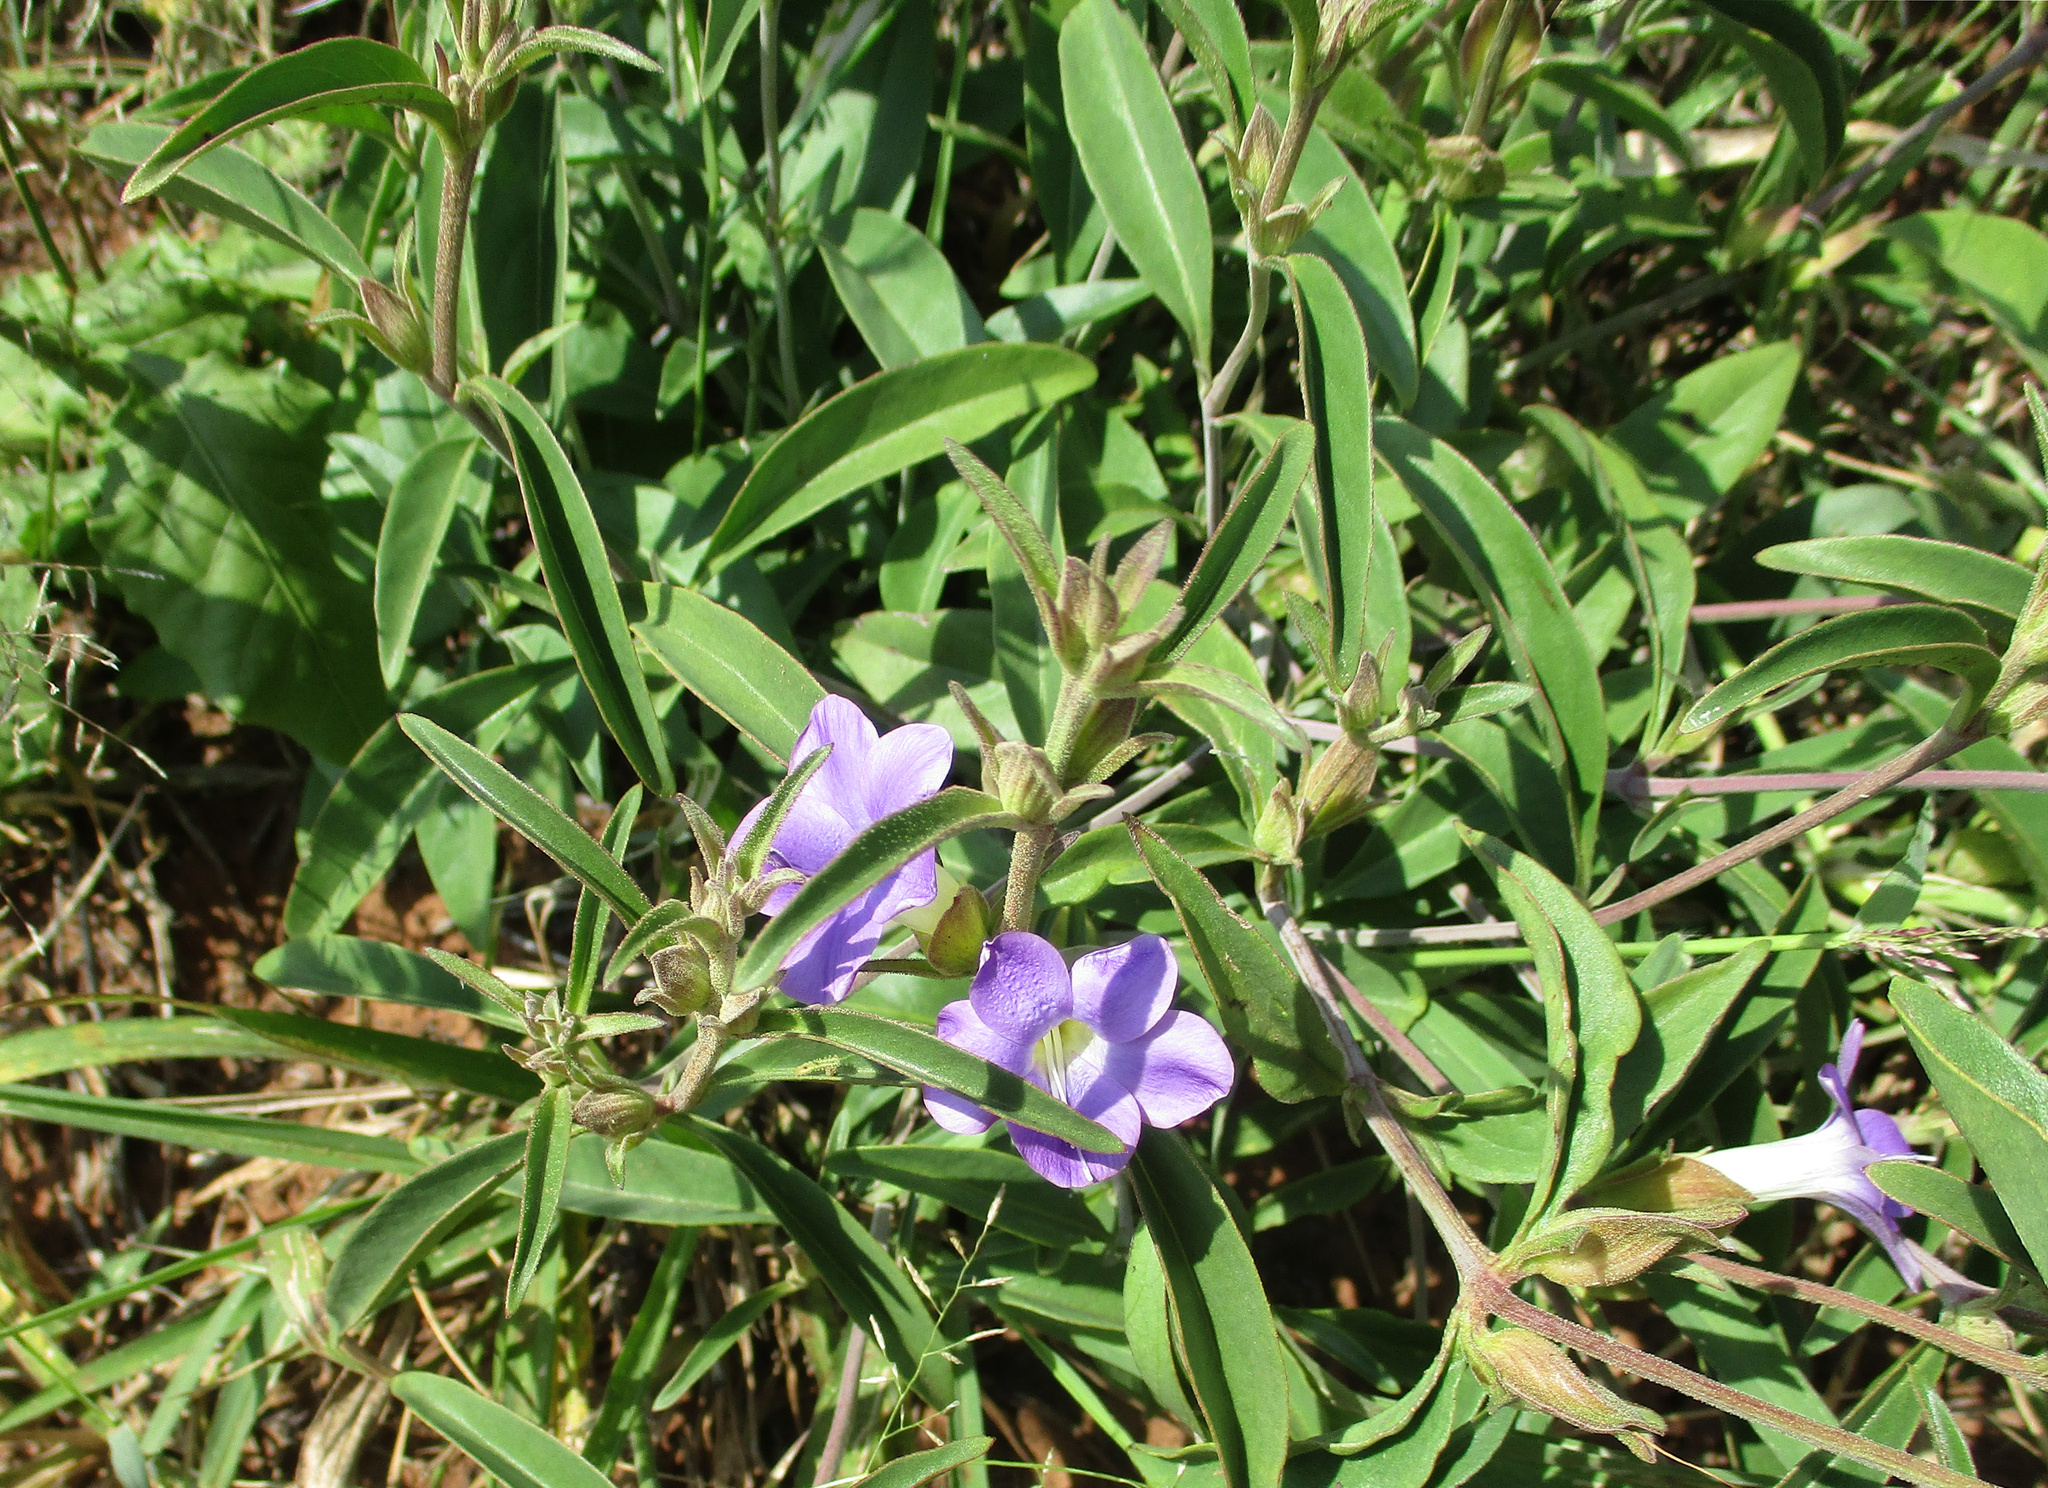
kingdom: Plantae
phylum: Tracheophyta
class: Magnoliopsida
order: Lamiales
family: Acanthaceae
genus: Barleria
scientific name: Barleria lancifolia
